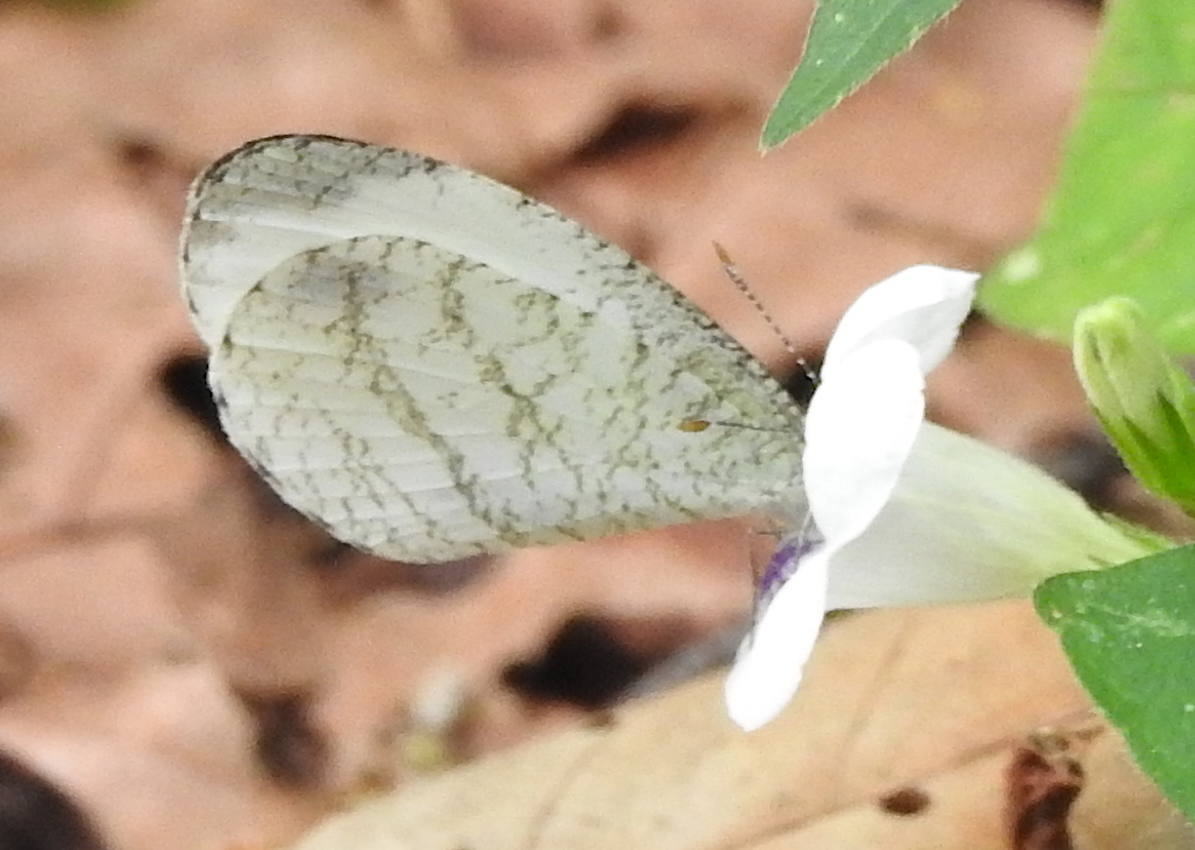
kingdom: Animalia
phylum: Arthropoda
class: Insecta
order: Lepidoptera
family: Pieridae
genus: Leptosia
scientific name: Leptosia nina
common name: Psyche
